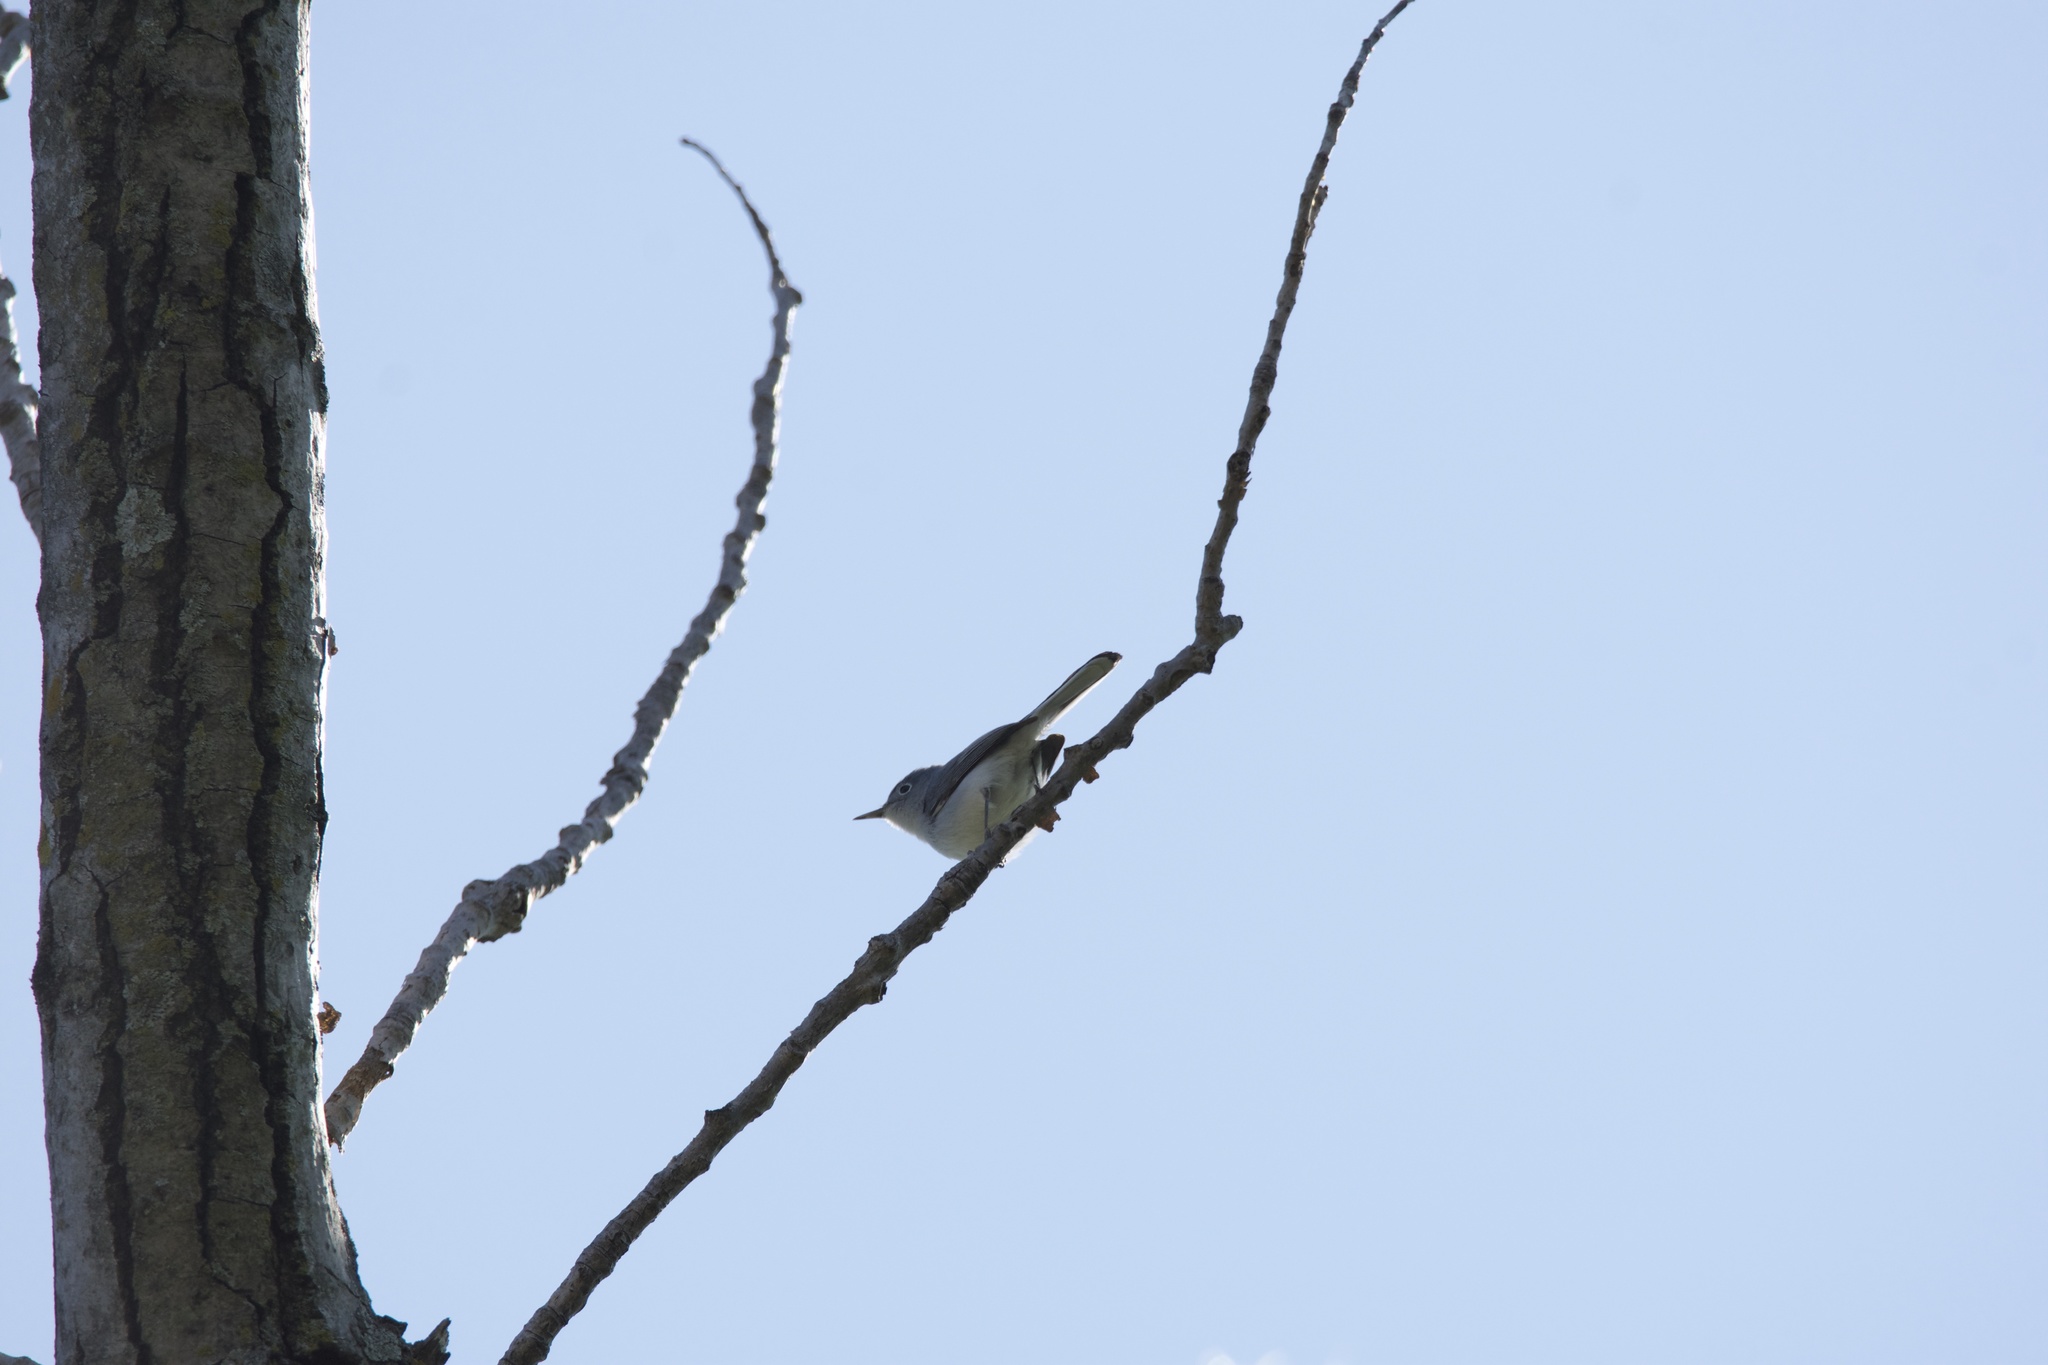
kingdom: Animalia
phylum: Chordata
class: Aves
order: Passeriformes
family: Polioptilidae
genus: Polioptila
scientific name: Polioptila caerulea
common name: Blue-gray gnatcatcher
